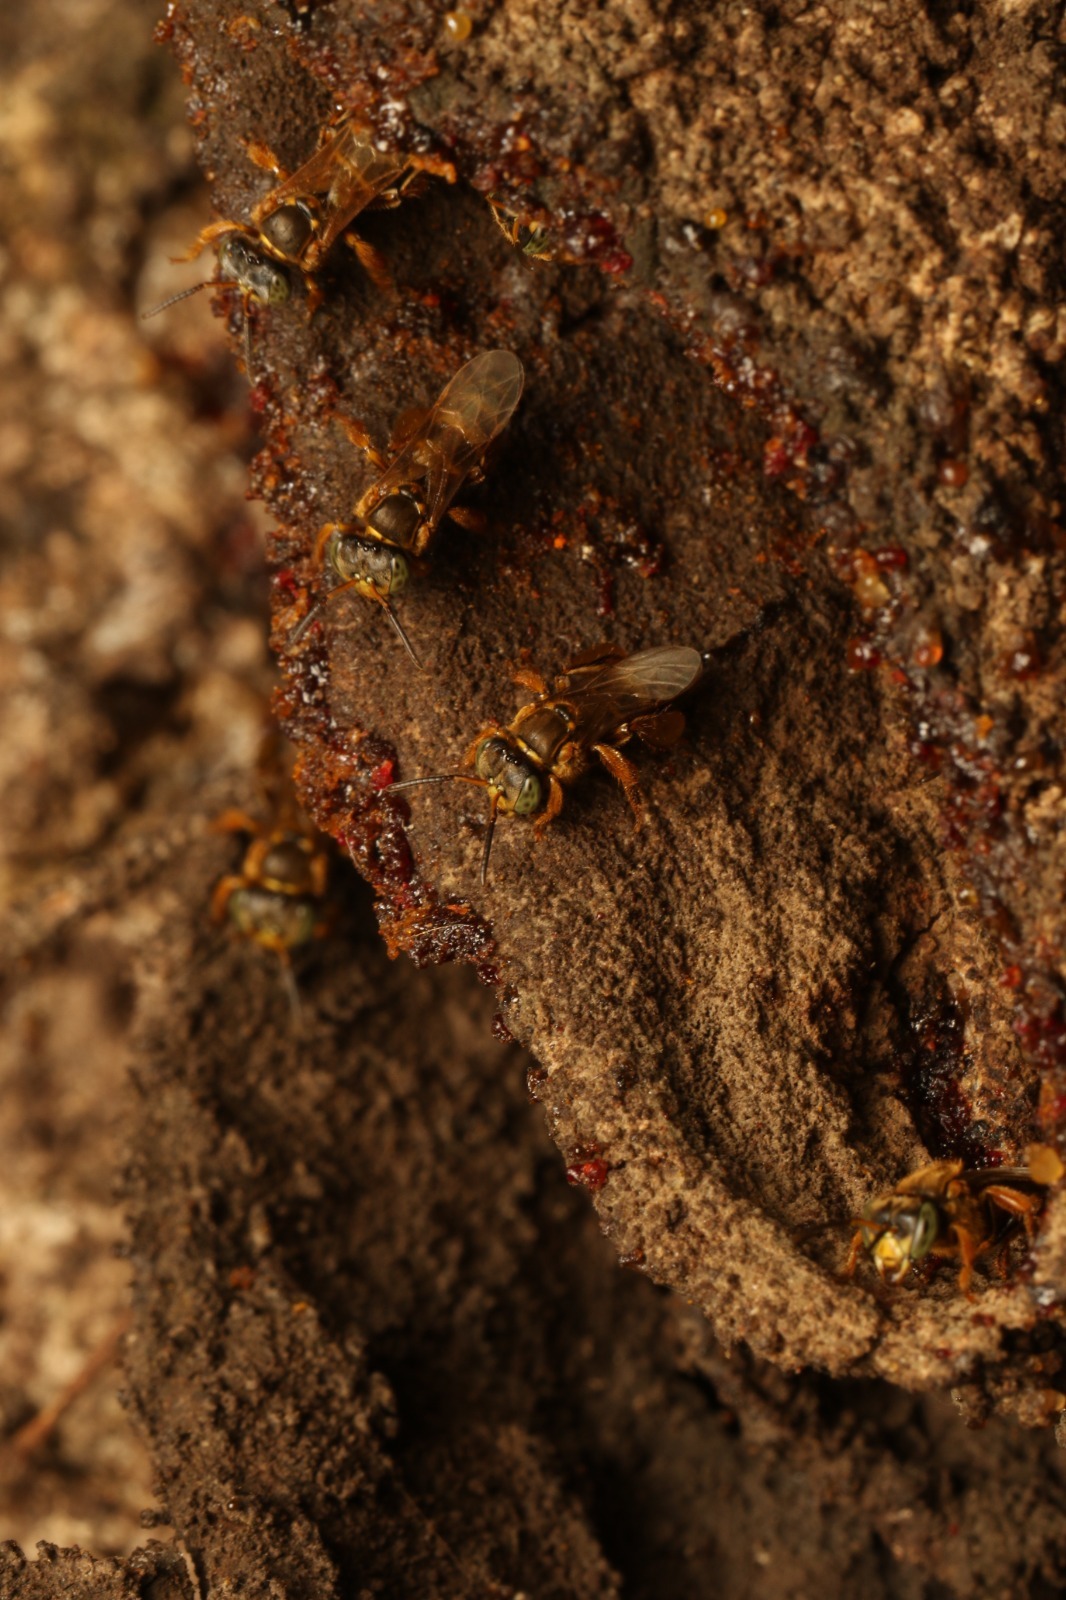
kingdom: Animalia
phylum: Arthropoda
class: Insecta
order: Hymenoptera
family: Apidae
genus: Tetragona
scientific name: Tetragona clavipes
